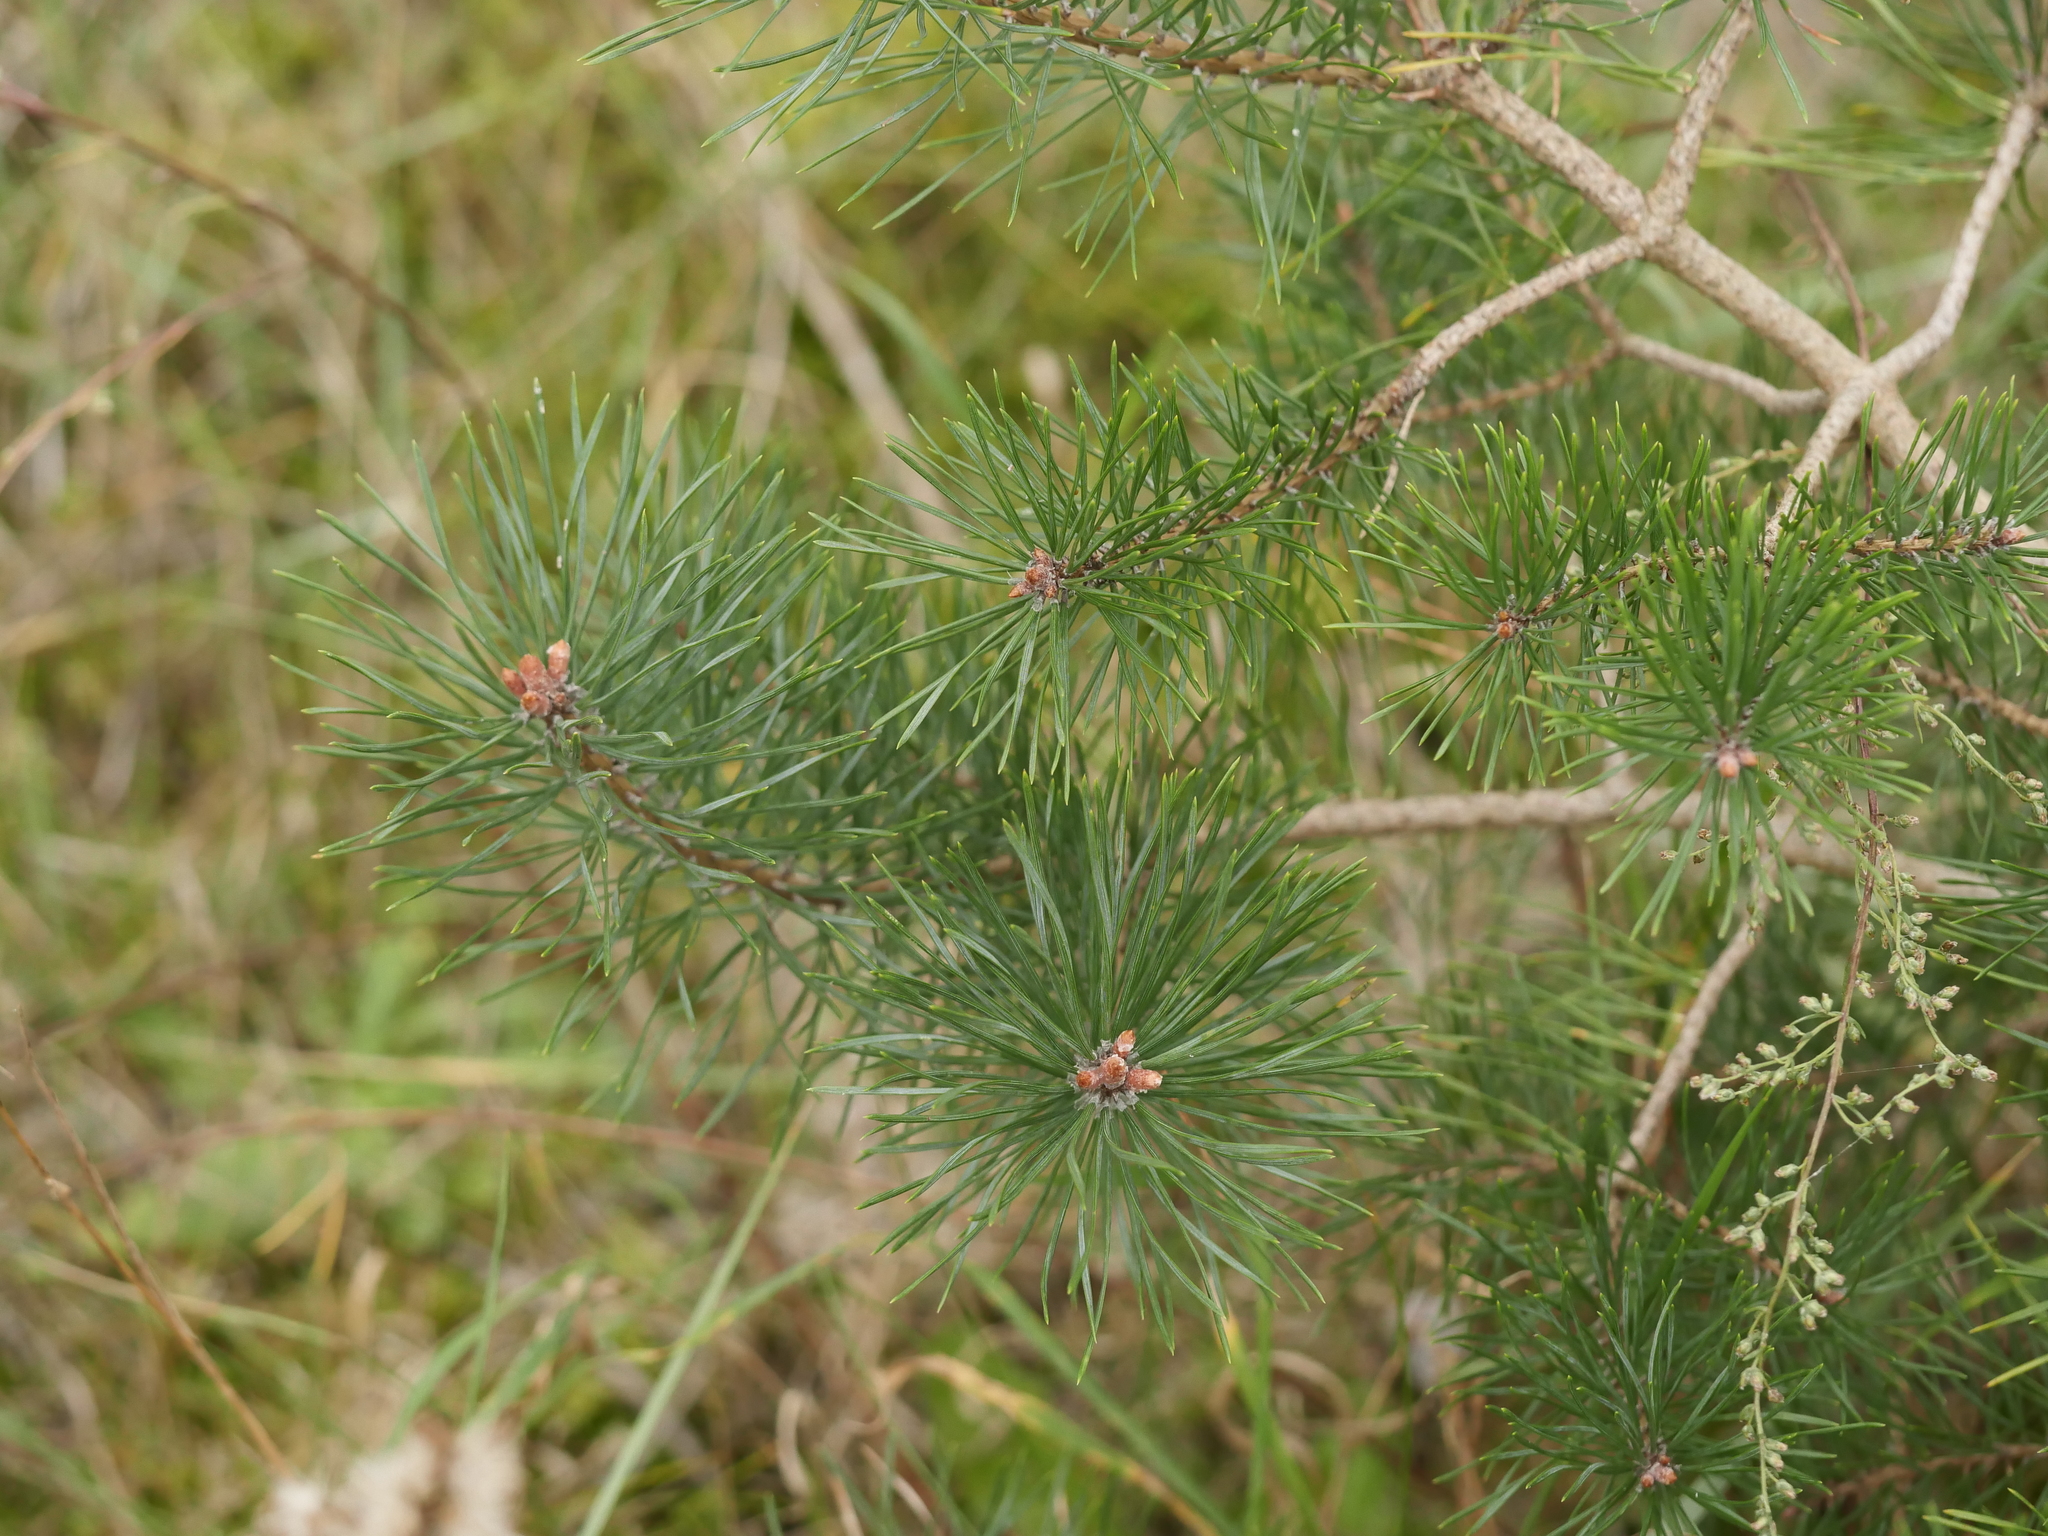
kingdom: Plantae
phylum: Tracheophyta
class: Pinopsida
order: Pinales
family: Pinaceae
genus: Pinus
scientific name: Pinus sylvestris
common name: Scots pine
